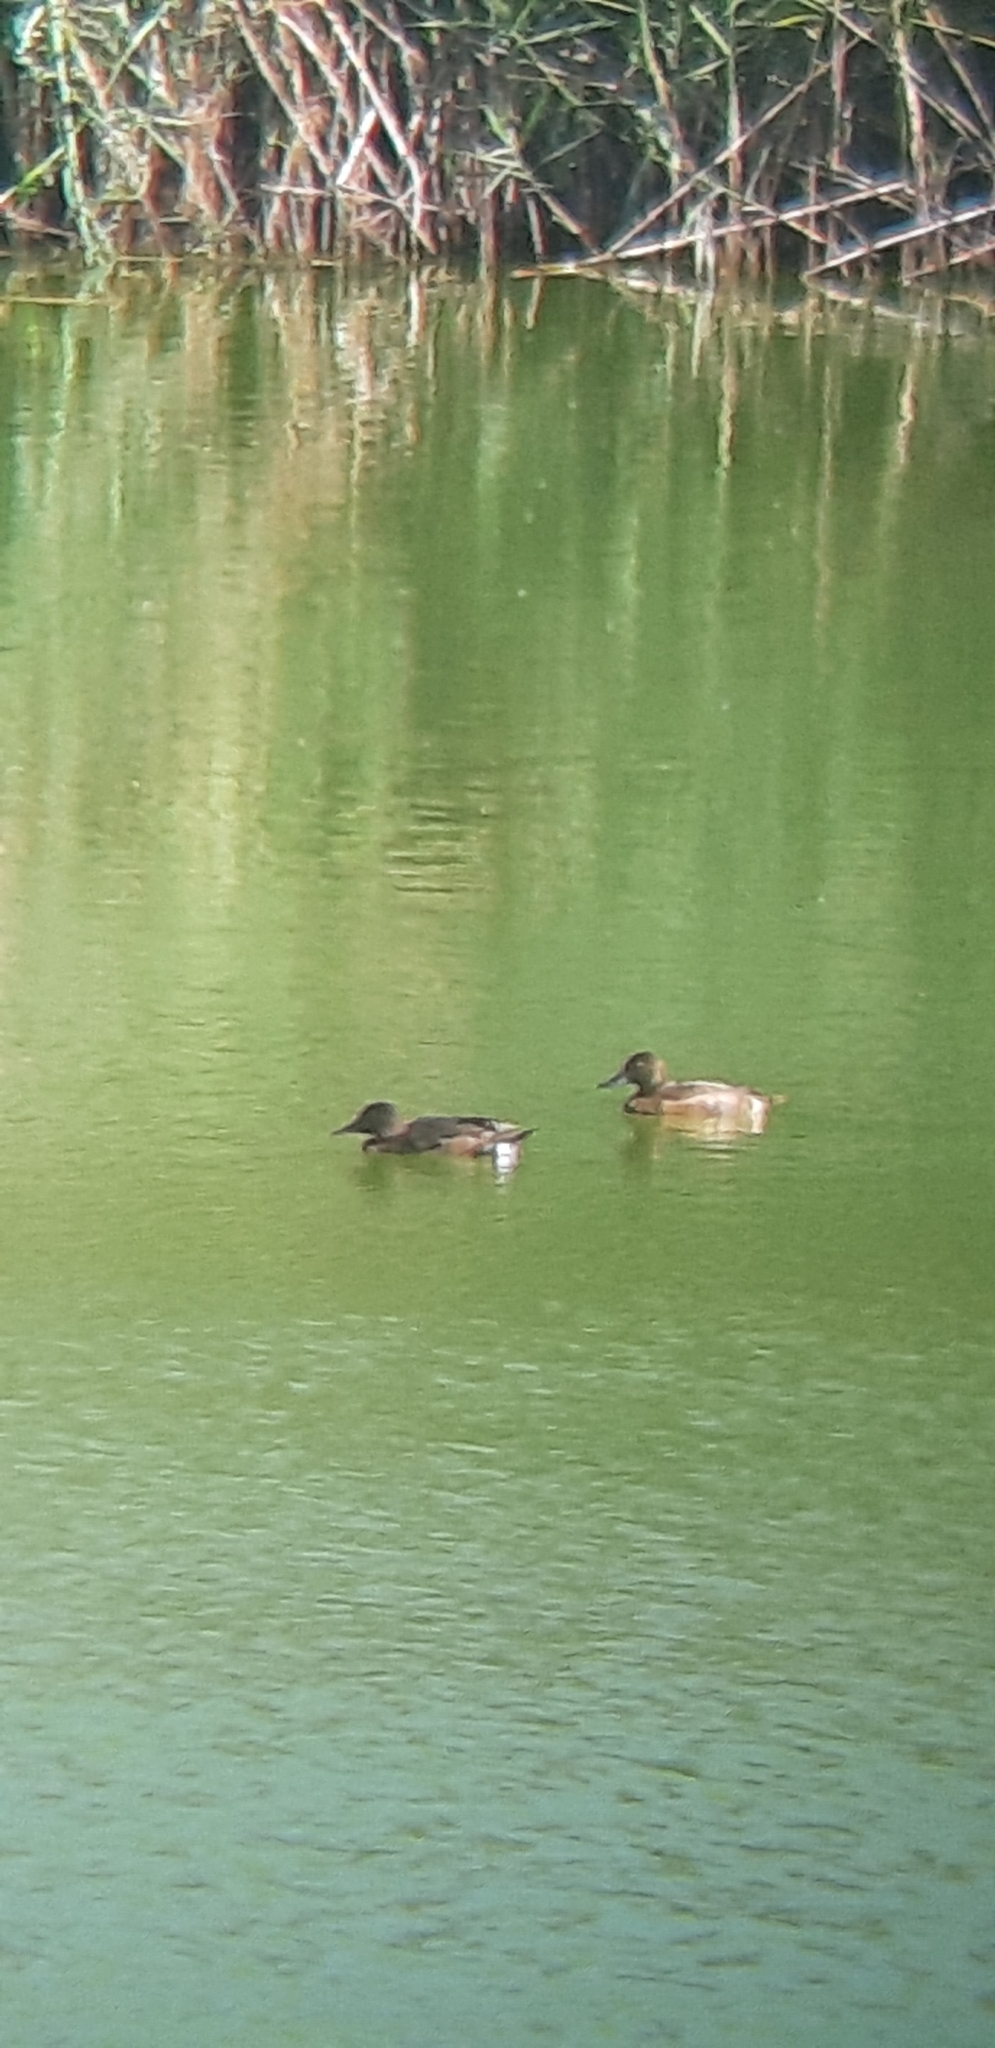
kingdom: Animalia
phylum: Chordata
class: Aves
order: Anseriformes
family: Anatidae
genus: Aythya
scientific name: Aythya nyroca
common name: Ferruginous duck
